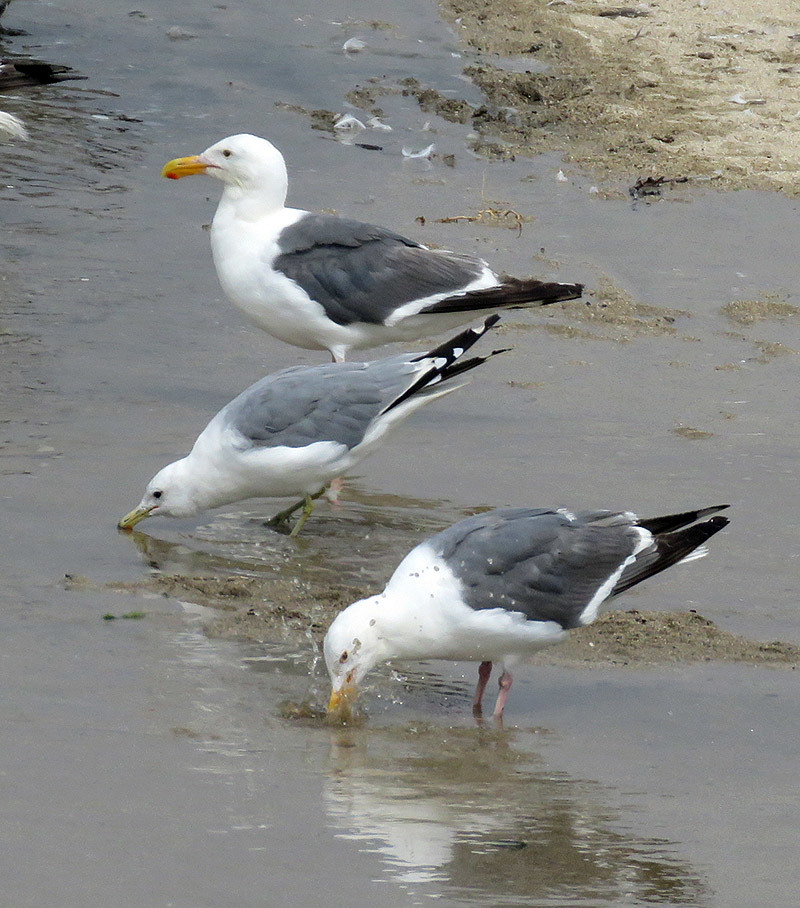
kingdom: Animalia
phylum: Chordata
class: Aves
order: Charadriiformes
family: Laridae
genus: Larus
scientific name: Larus occidentalis
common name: Western gull
